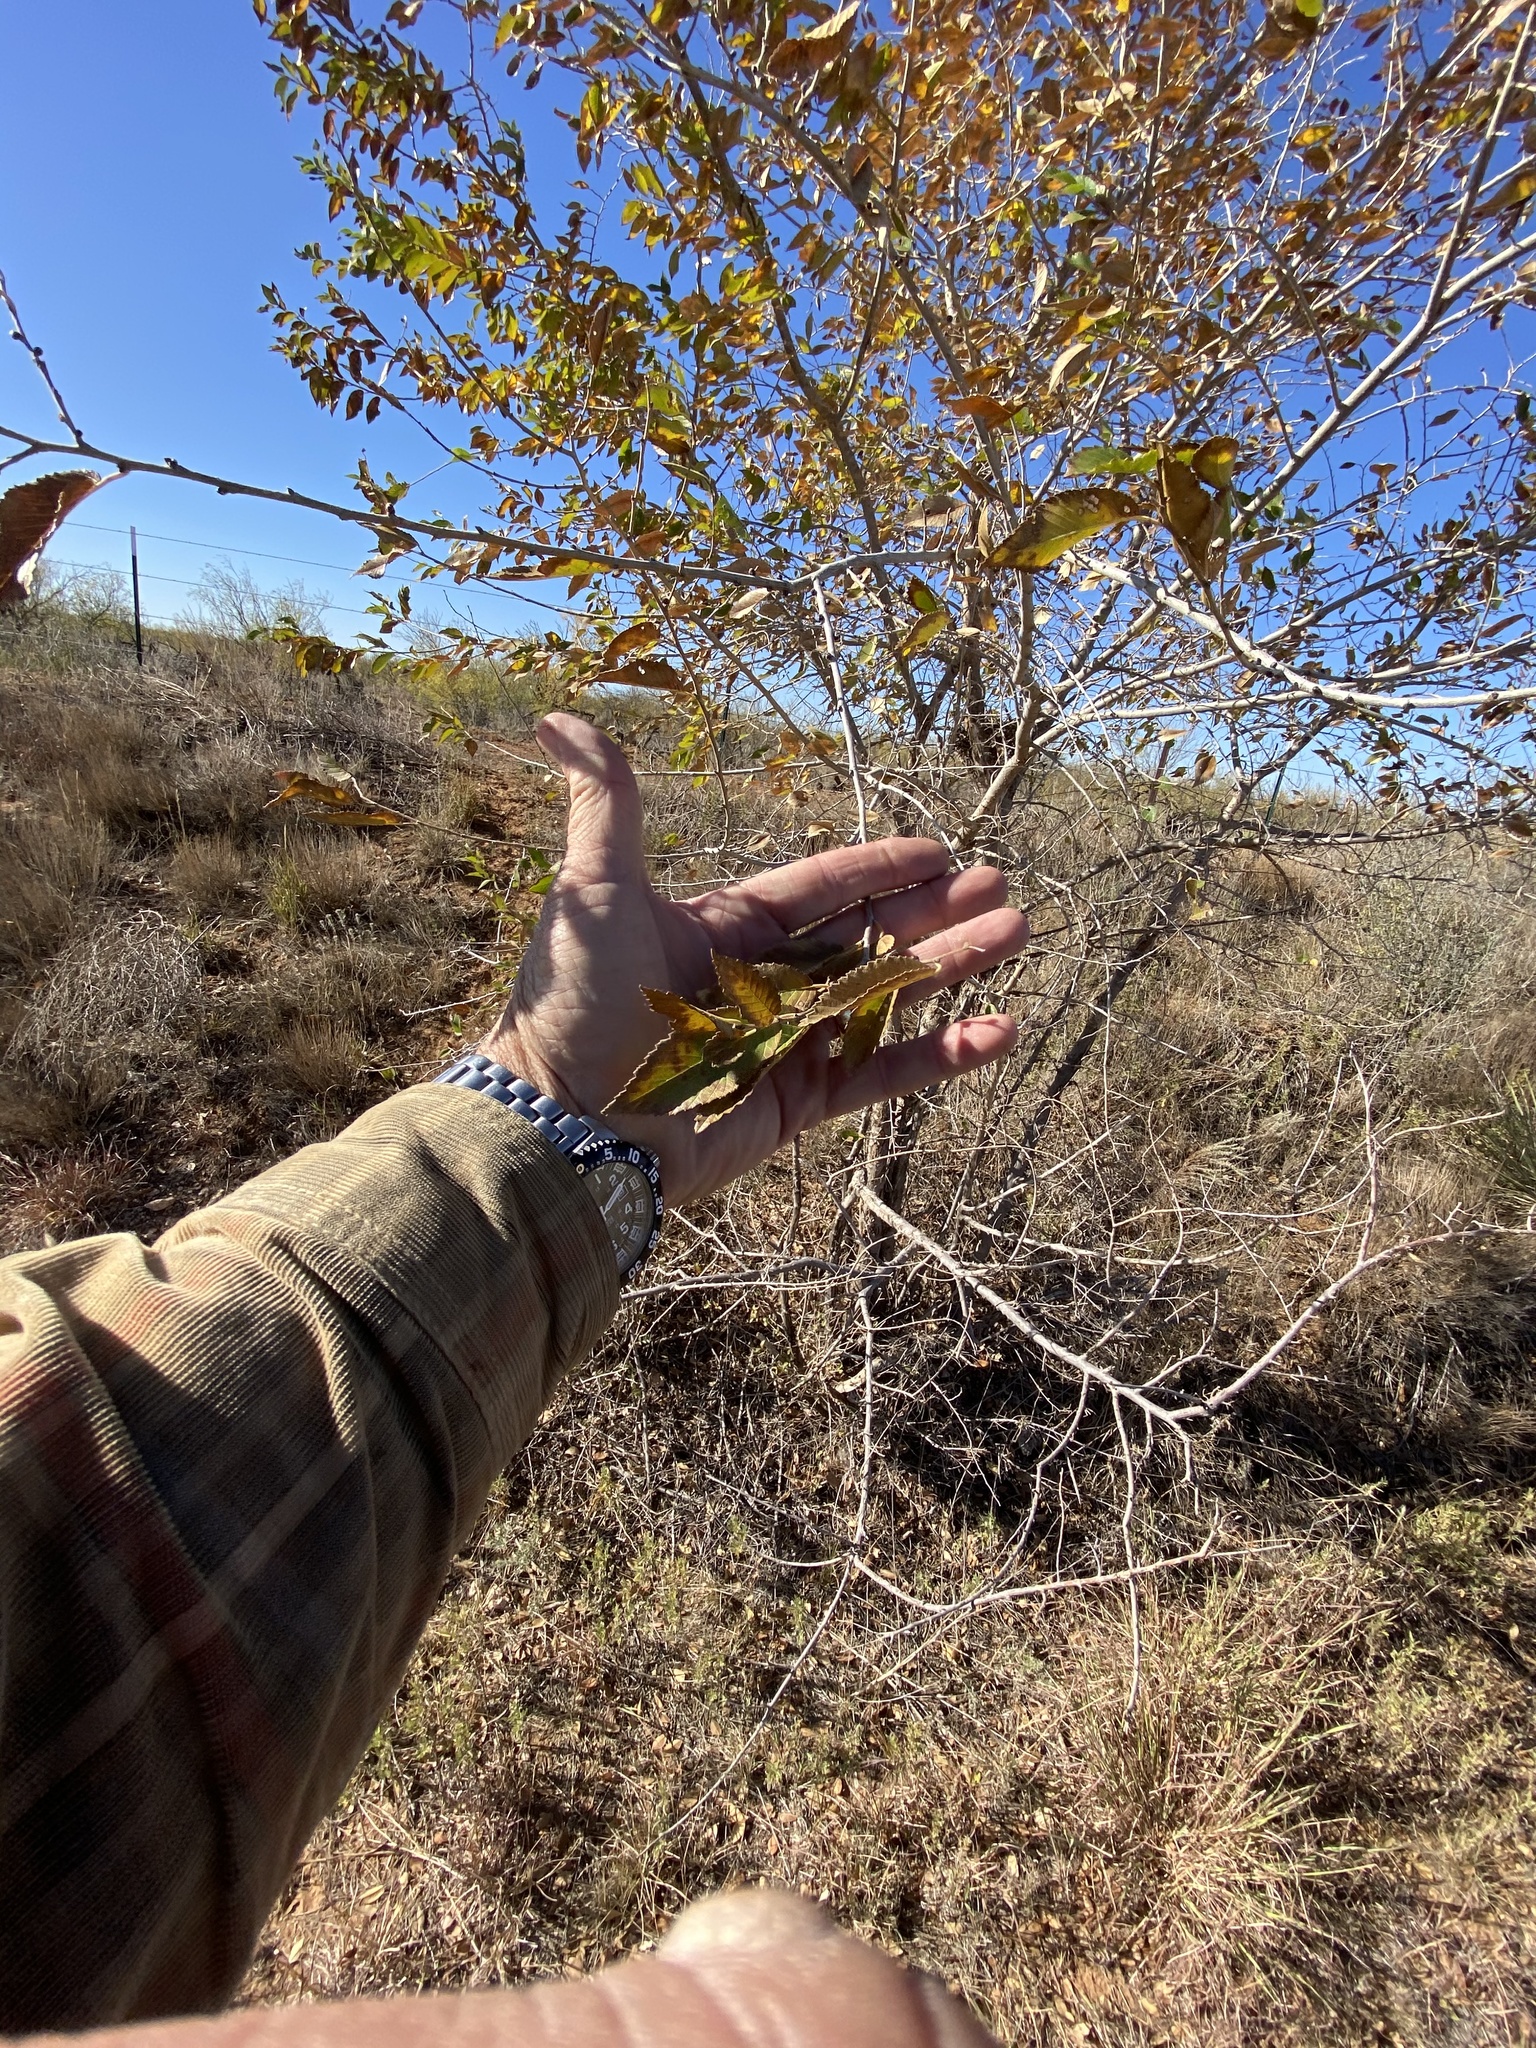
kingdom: Plantae
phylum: Tracheophyta
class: Magnoliopsida
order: Rosales
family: Ulmaceae
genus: Ulmus
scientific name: Ulmus pumila
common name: Siberian elm
